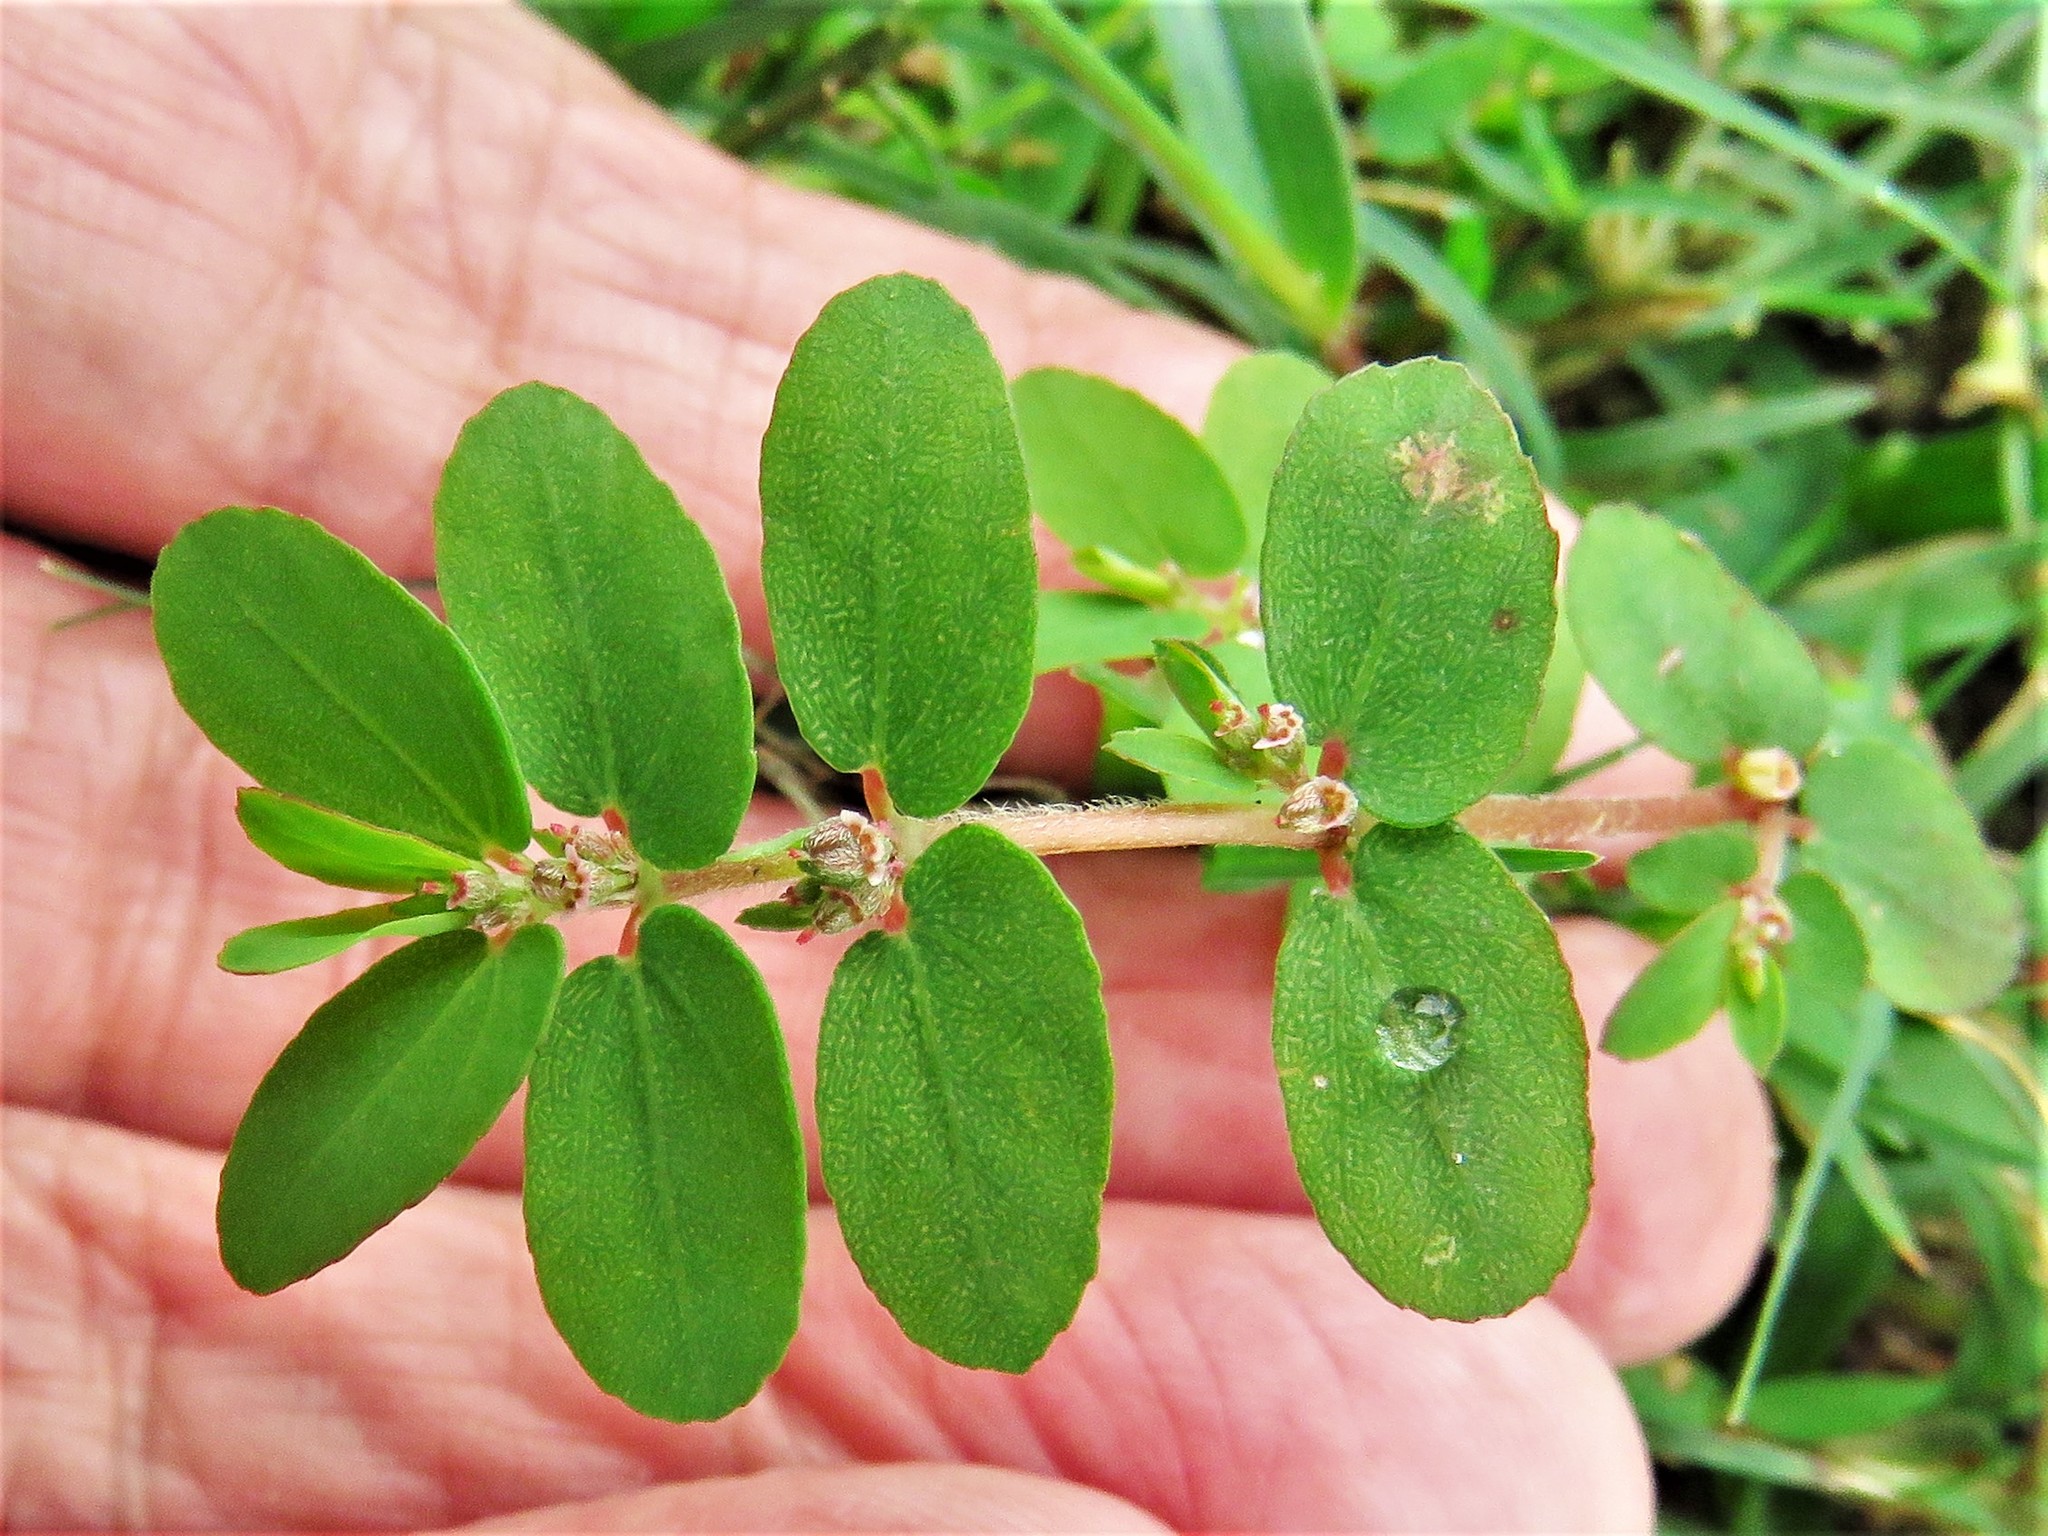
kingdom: Plantae
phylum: Tracheophyta
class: Magnoliopsida
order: Malpighiales
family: Euphorbiaceae
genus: Euphorbia
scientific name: Euphorbia thymifolia
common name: Gulf sandmat
